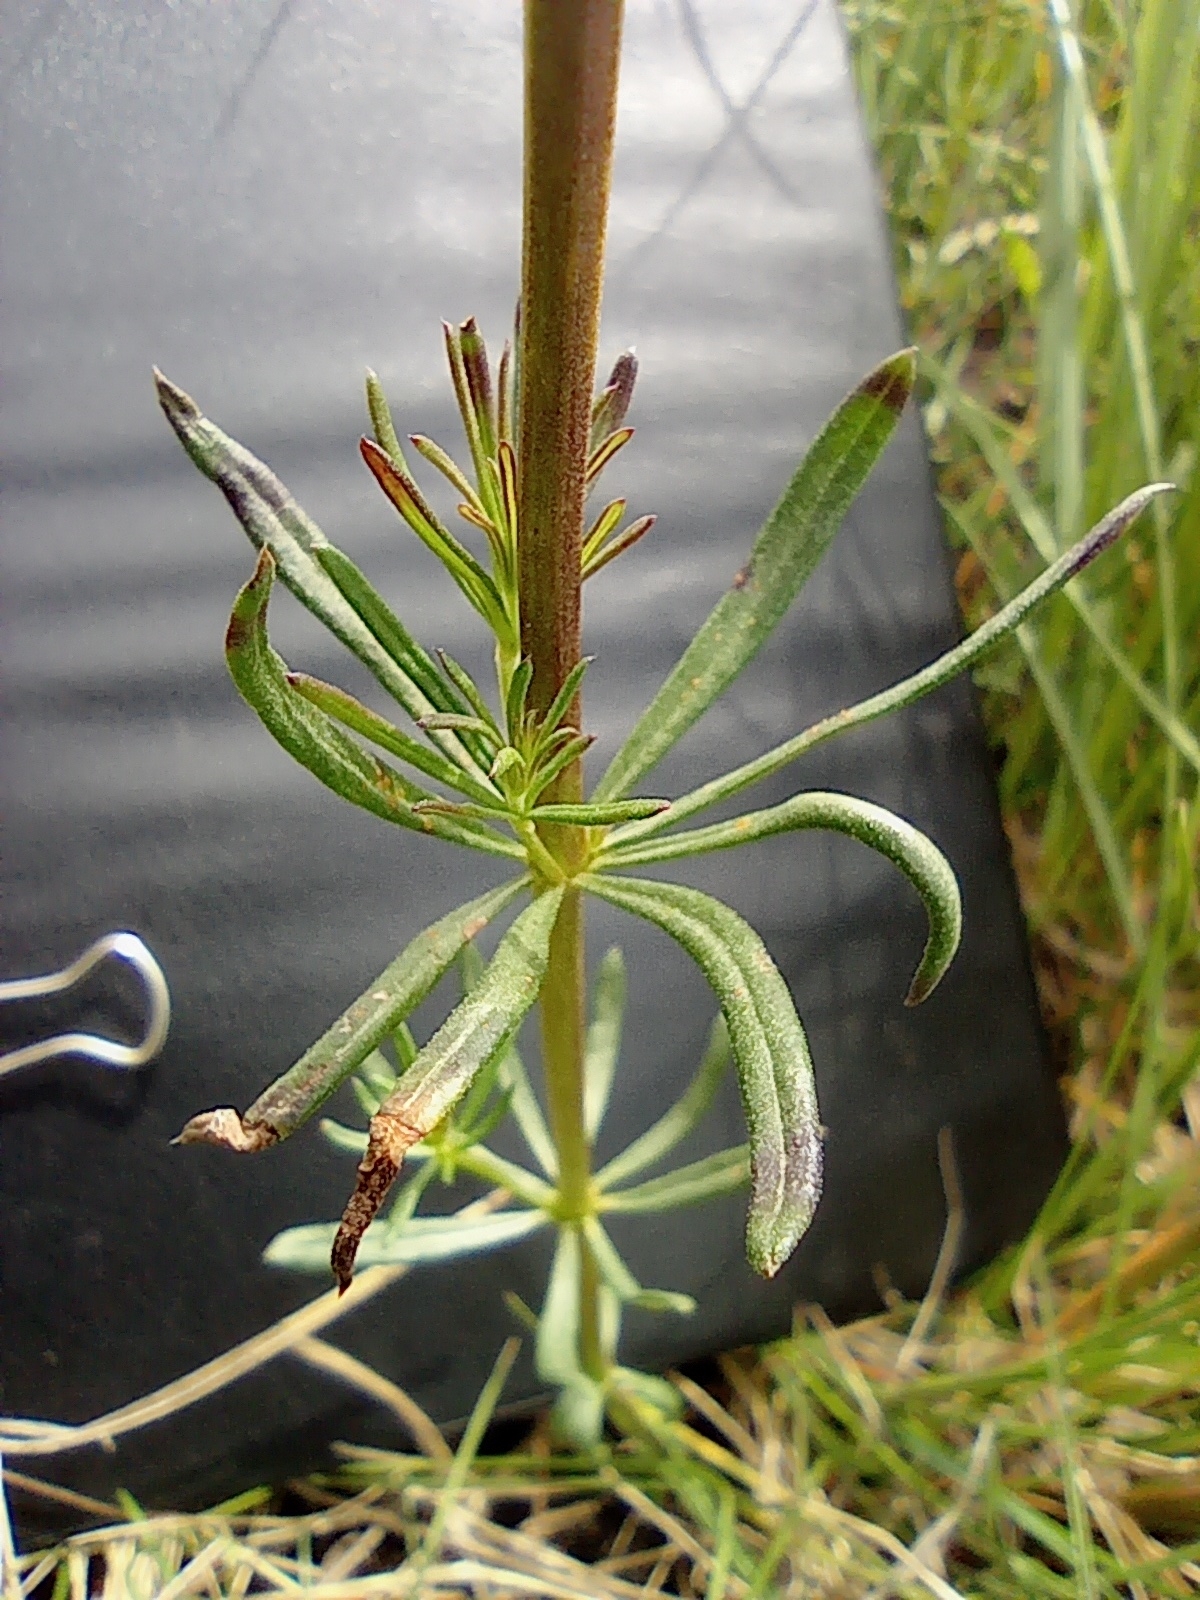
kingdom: Plantae
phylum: Tracheophyta
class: Magnoliopsida
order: Gentianales
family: Rubiaceae
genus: Galium
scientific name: Galium verum
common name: Lady's bedstraw
